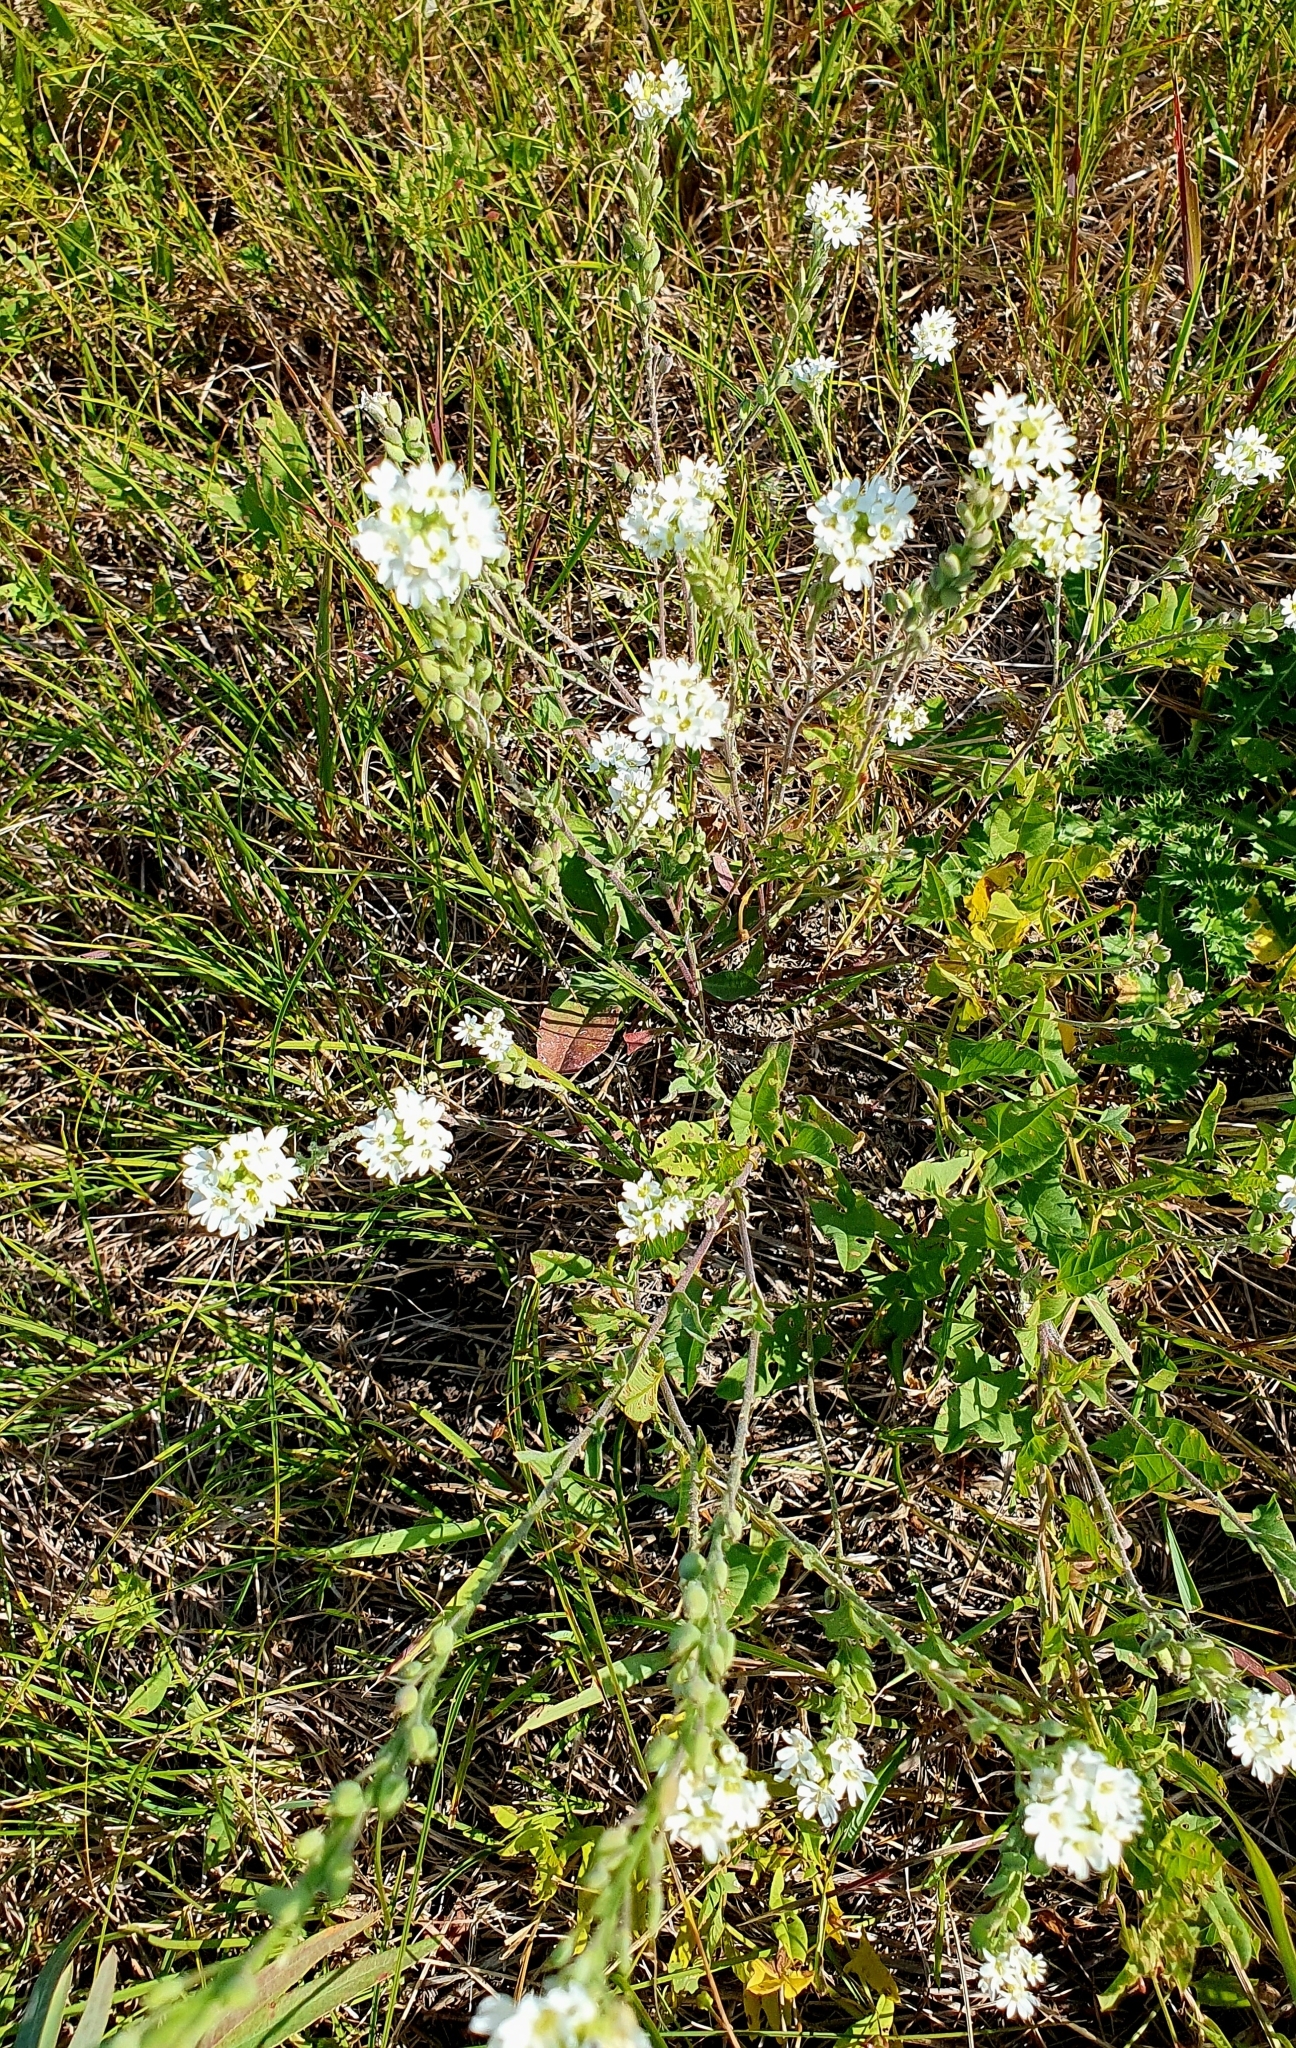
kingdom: Plantae
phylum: Tracheophyta
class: Magnoliopsida
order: Brassicales
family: Brassicaceae
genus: Berteroa
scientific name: Berteroa incana
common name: Hoary alison
